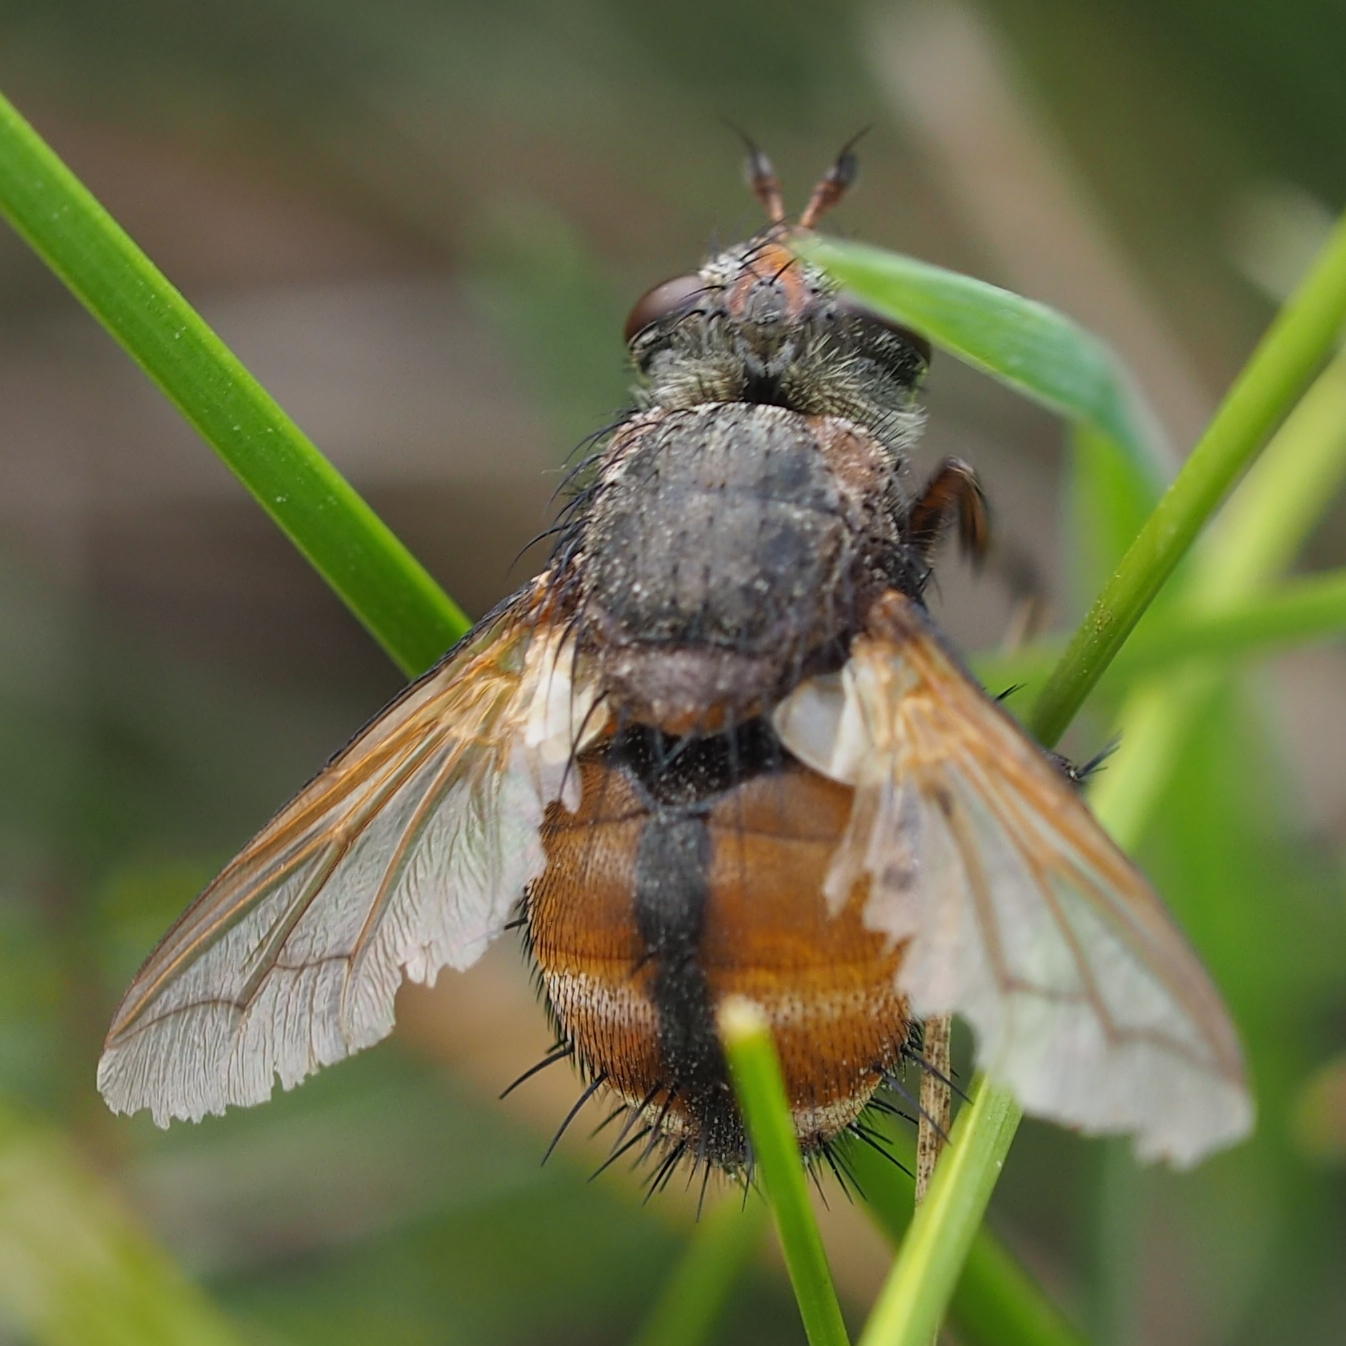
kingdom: Animalia
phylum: Arthropoda
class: Insecta
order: Diptera
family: Tachinidae
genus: Tachina
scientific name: Tachina fera
